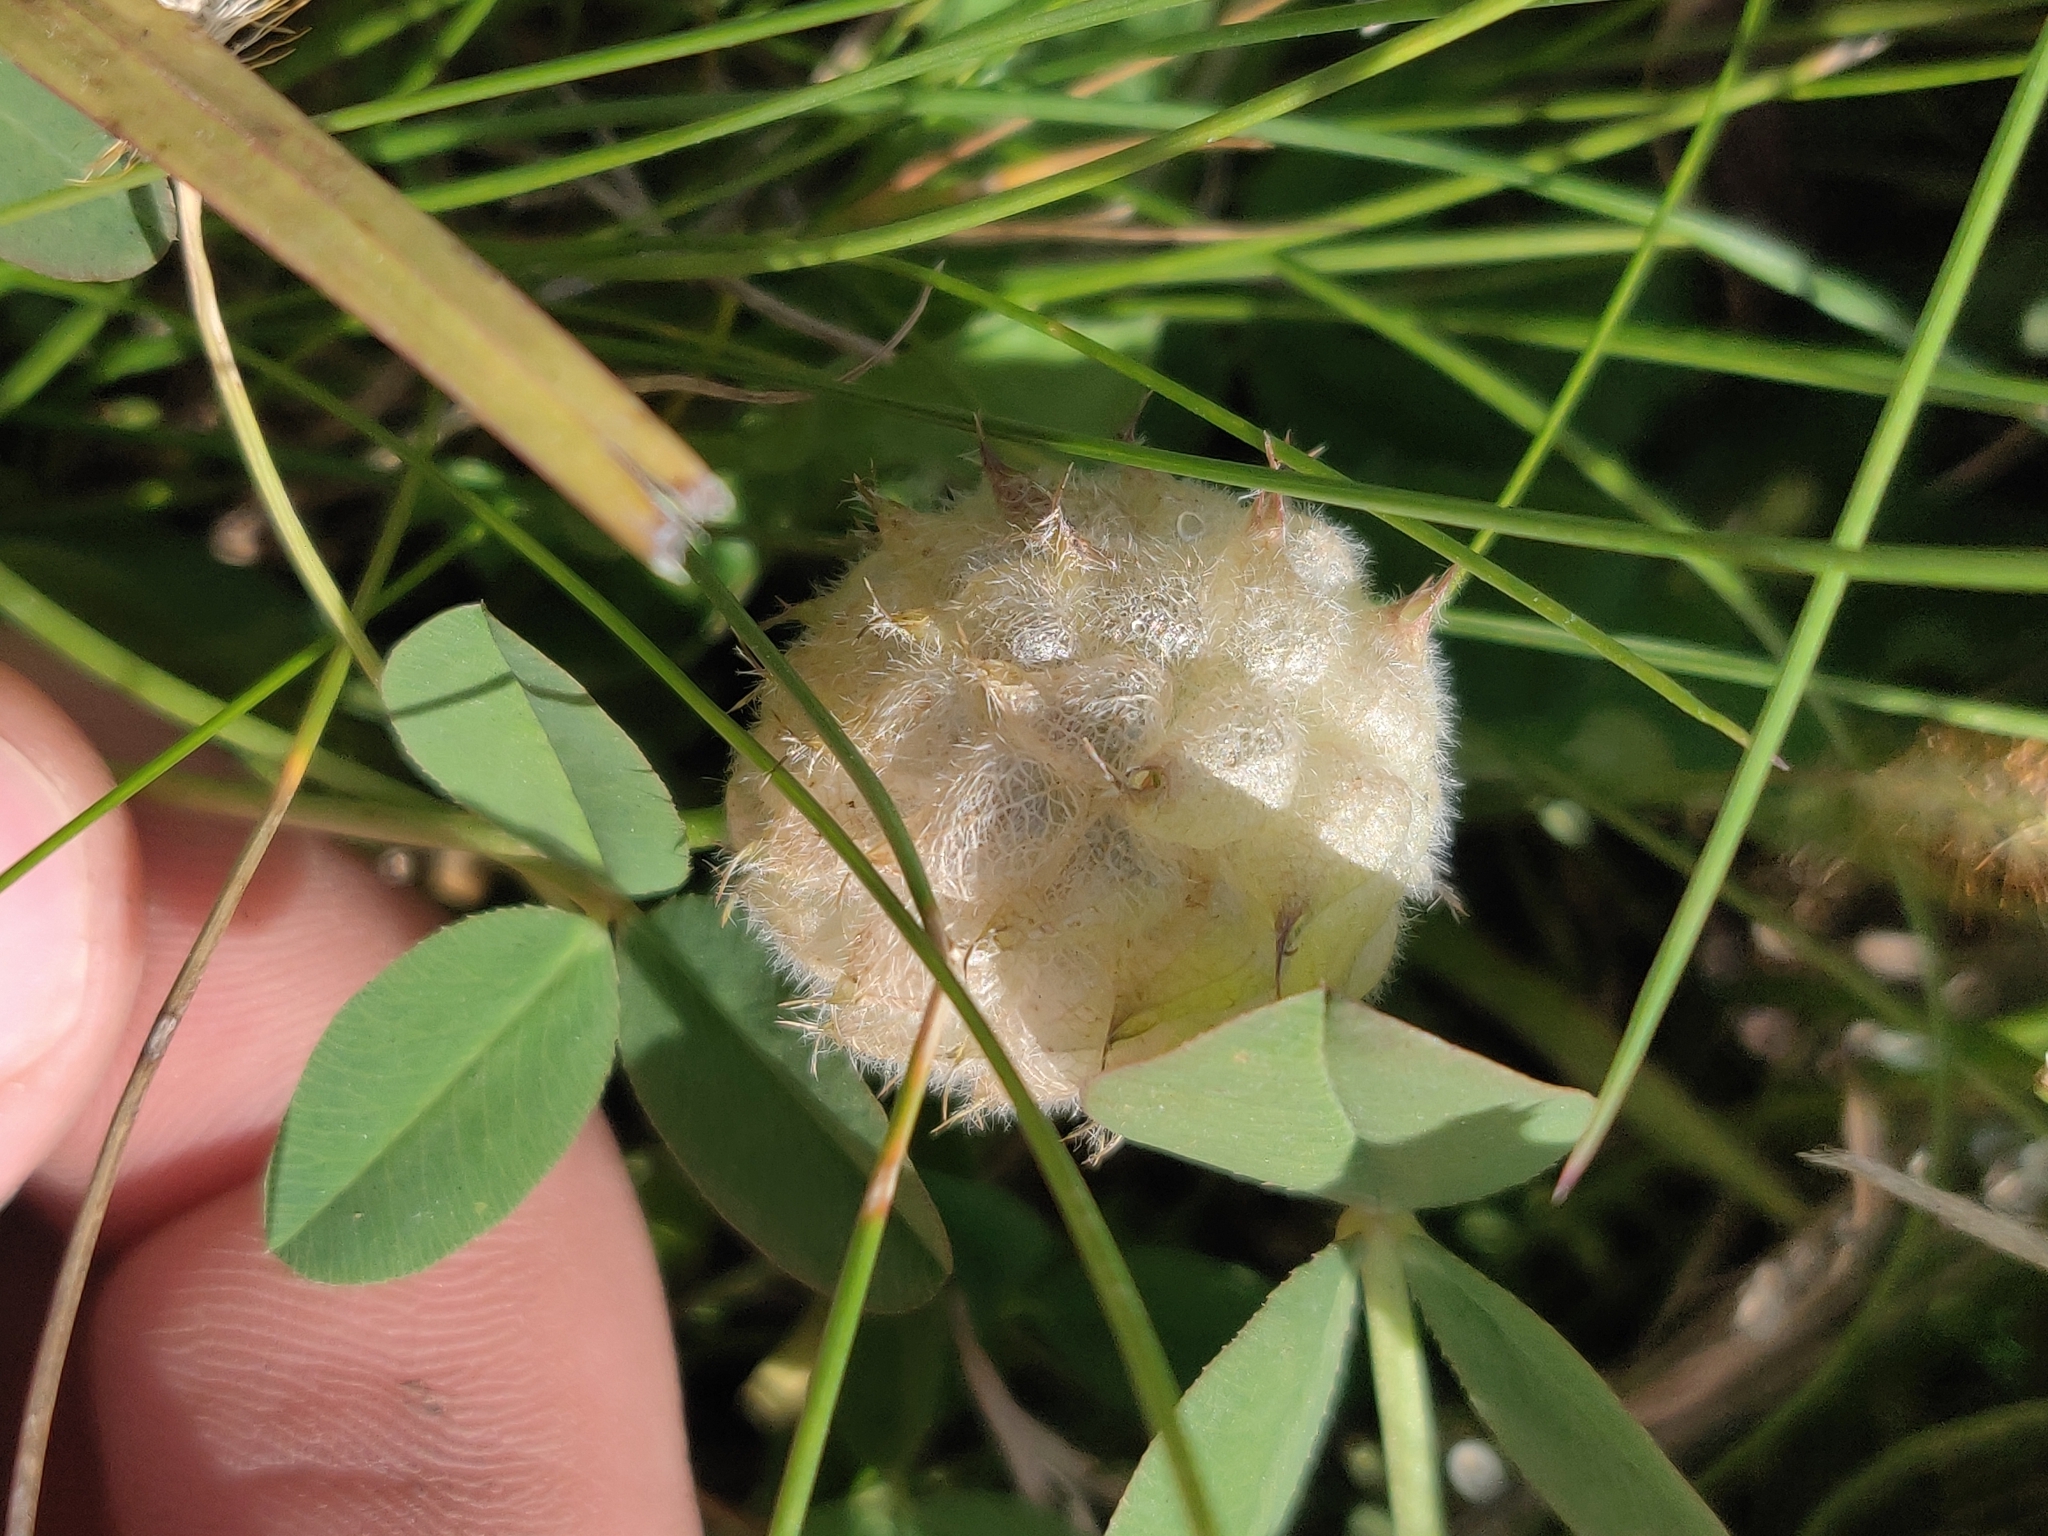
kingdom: Plantae
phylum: Tracheophyta
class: Magnoliopsida
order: Fabales
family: Fabaceae
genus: Trifolium
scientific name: Trifolium fragiferum
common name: Strawberry clover
